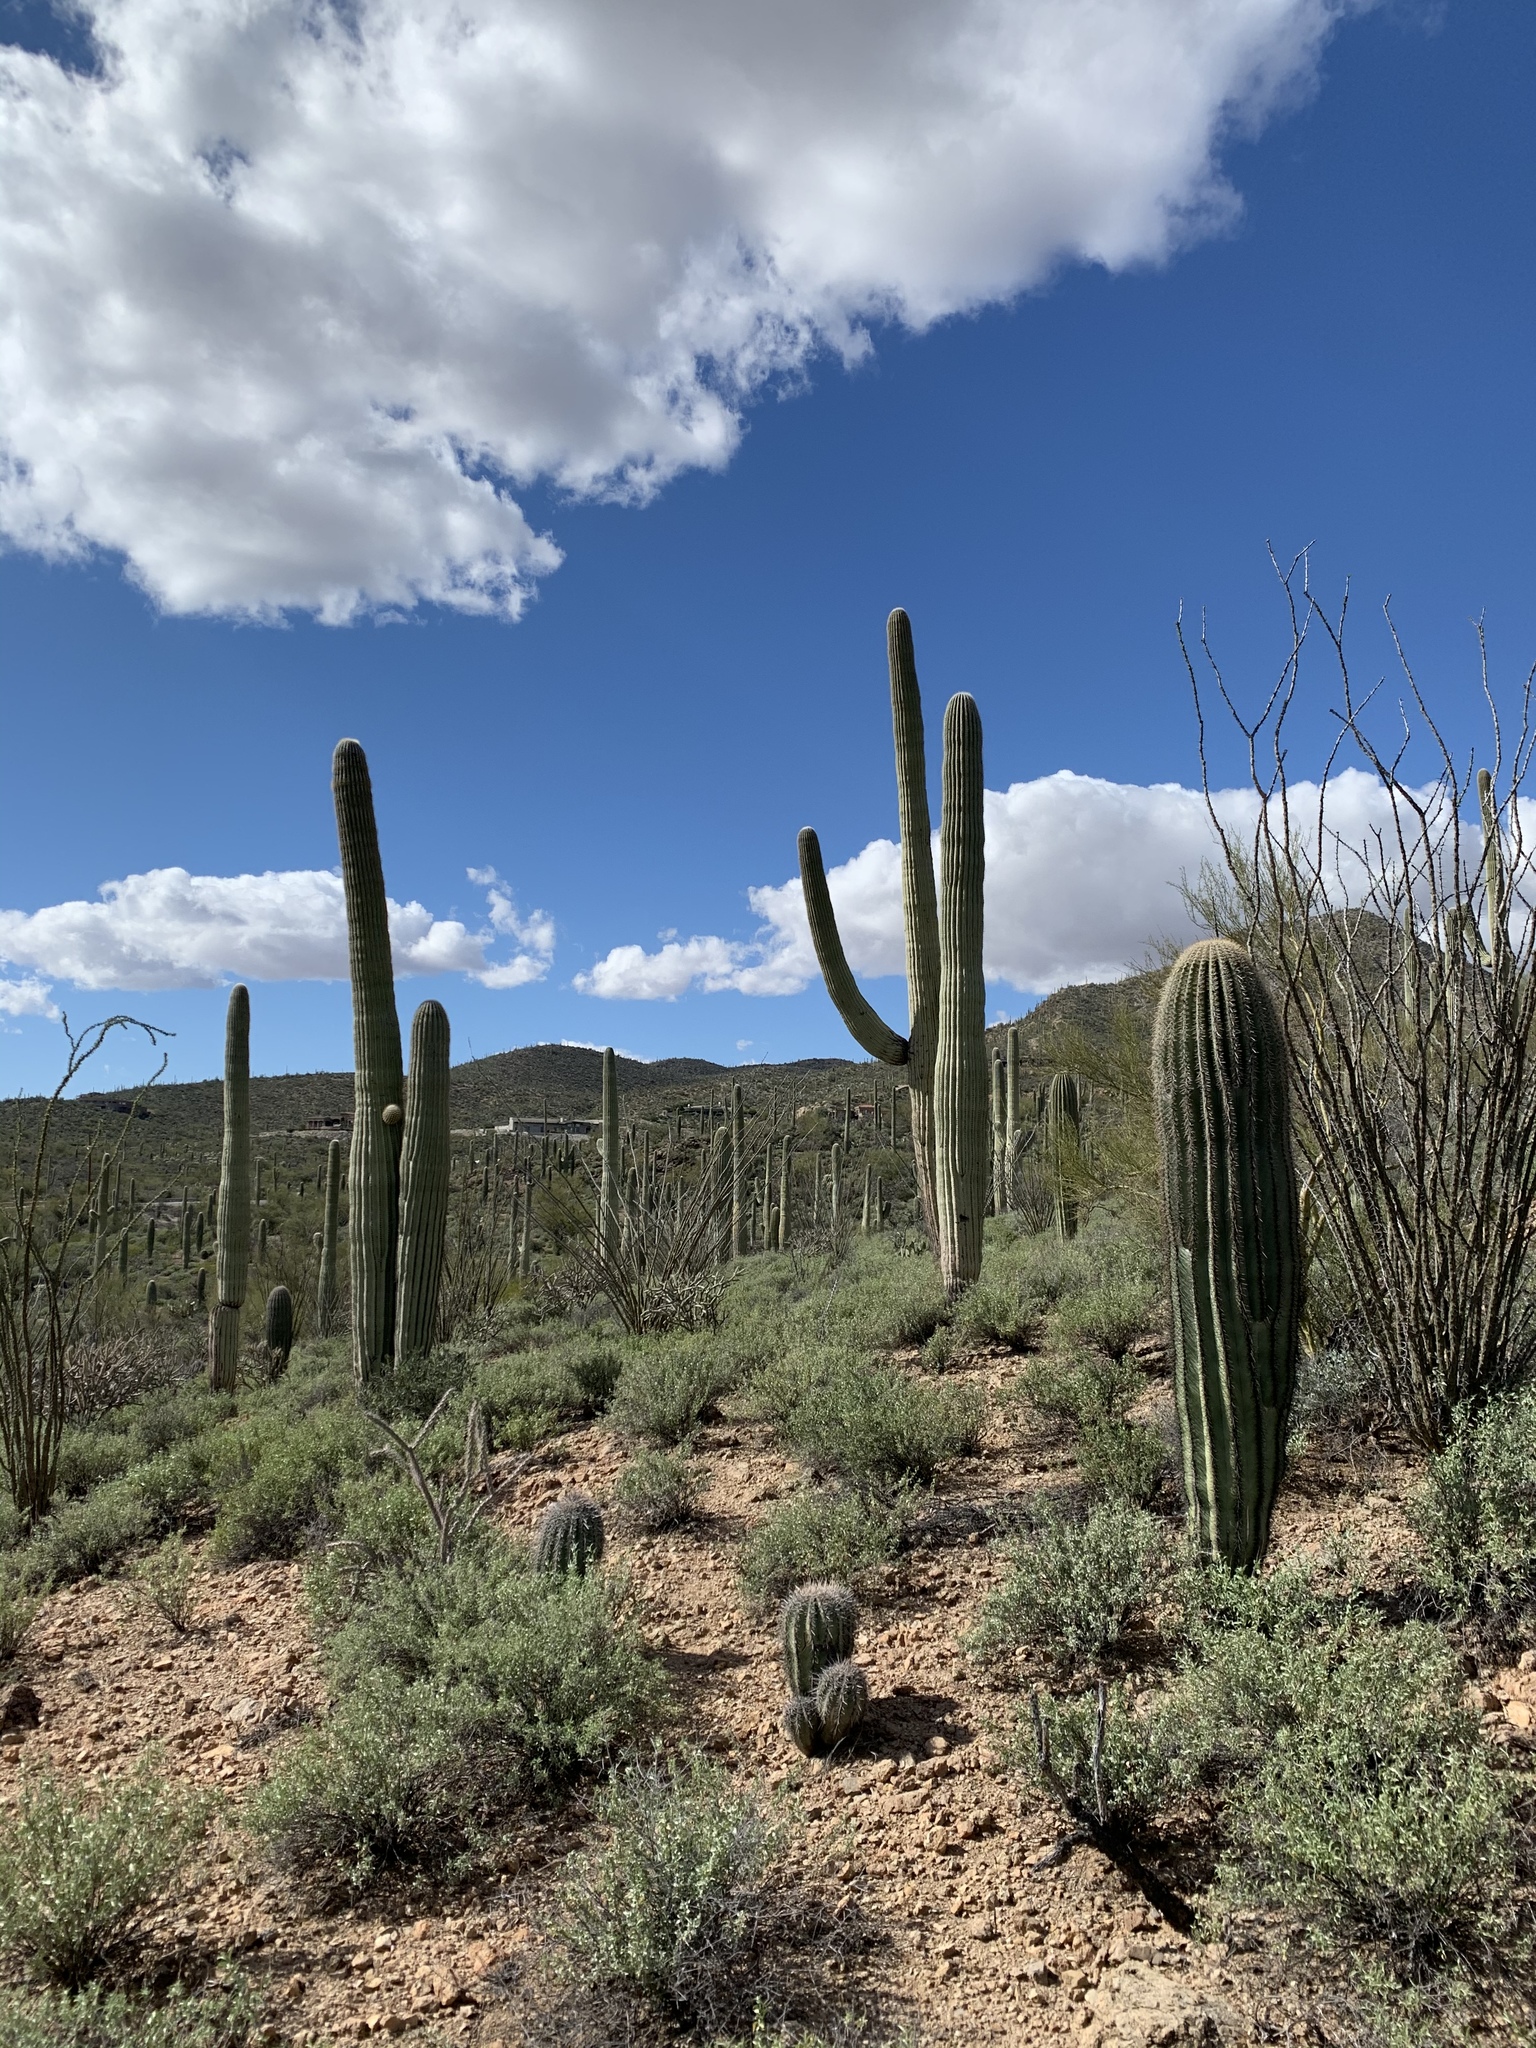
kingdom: Plantae
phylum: Tracheophyta
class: Magnoliopsida
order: Caryophyllales
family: Cactaceae
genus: Carnegiea
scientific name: Carnegiea gigantea
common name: Saguaro
